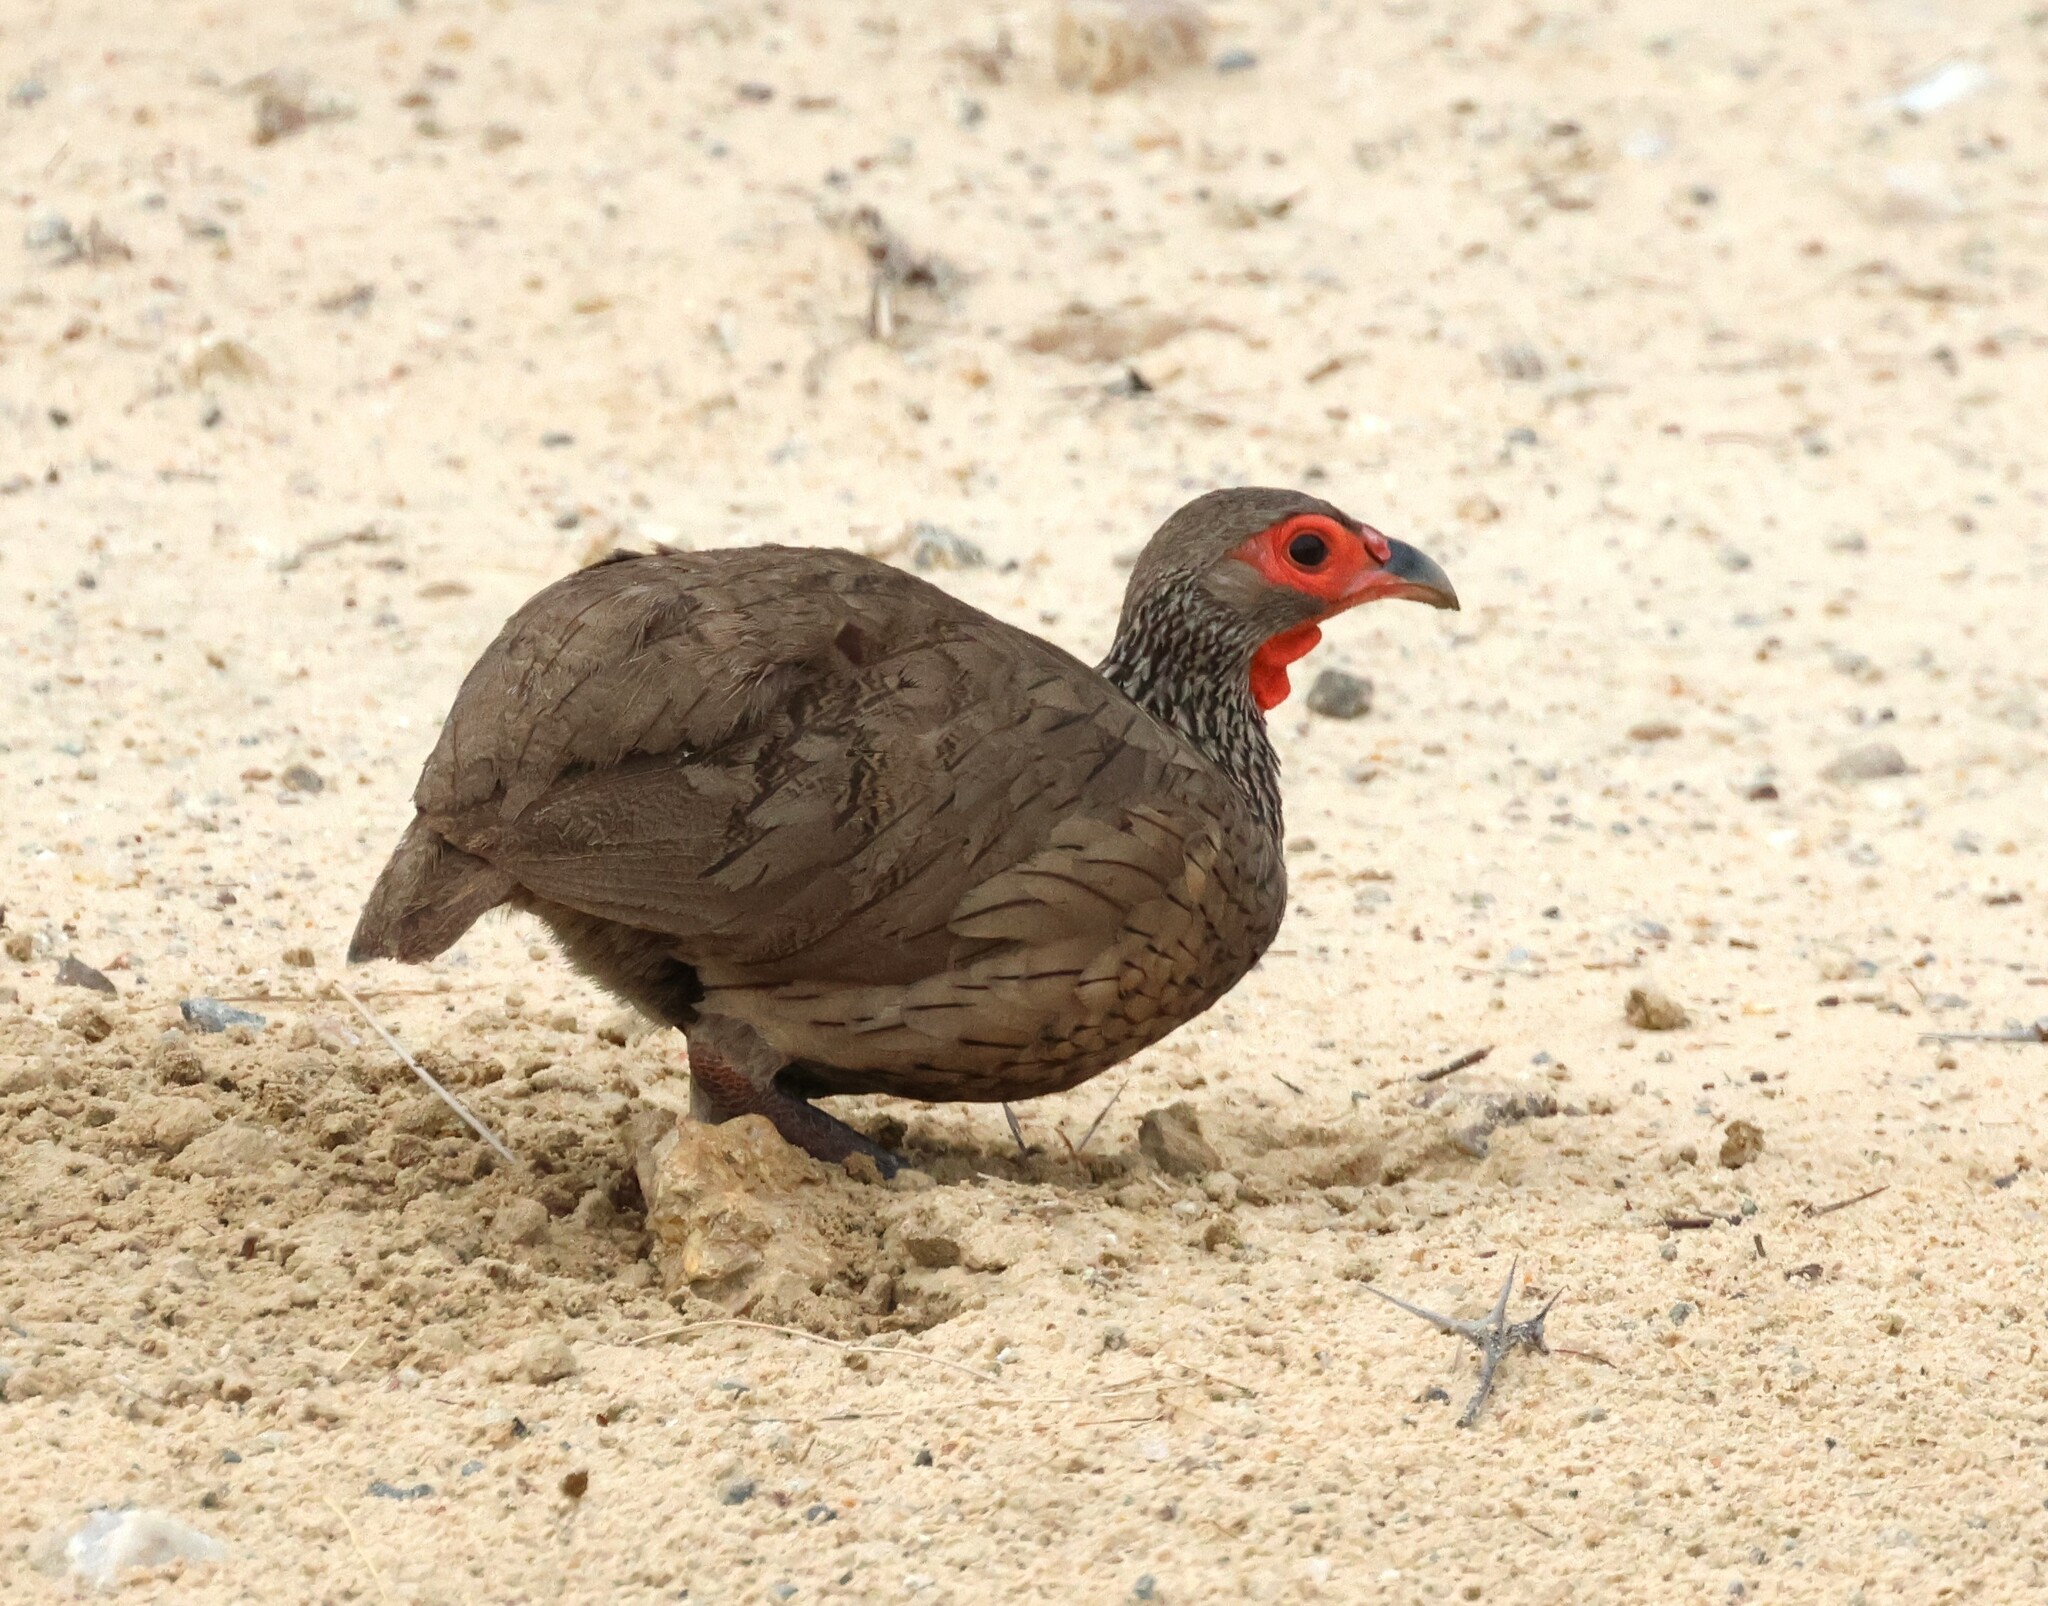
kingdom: Animalia
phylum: Chordata
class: Aves
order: Galliformes
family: Phasianidae
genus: Pternistis
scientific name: Pternistis swainsonii
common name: Swainson's spurfowl
